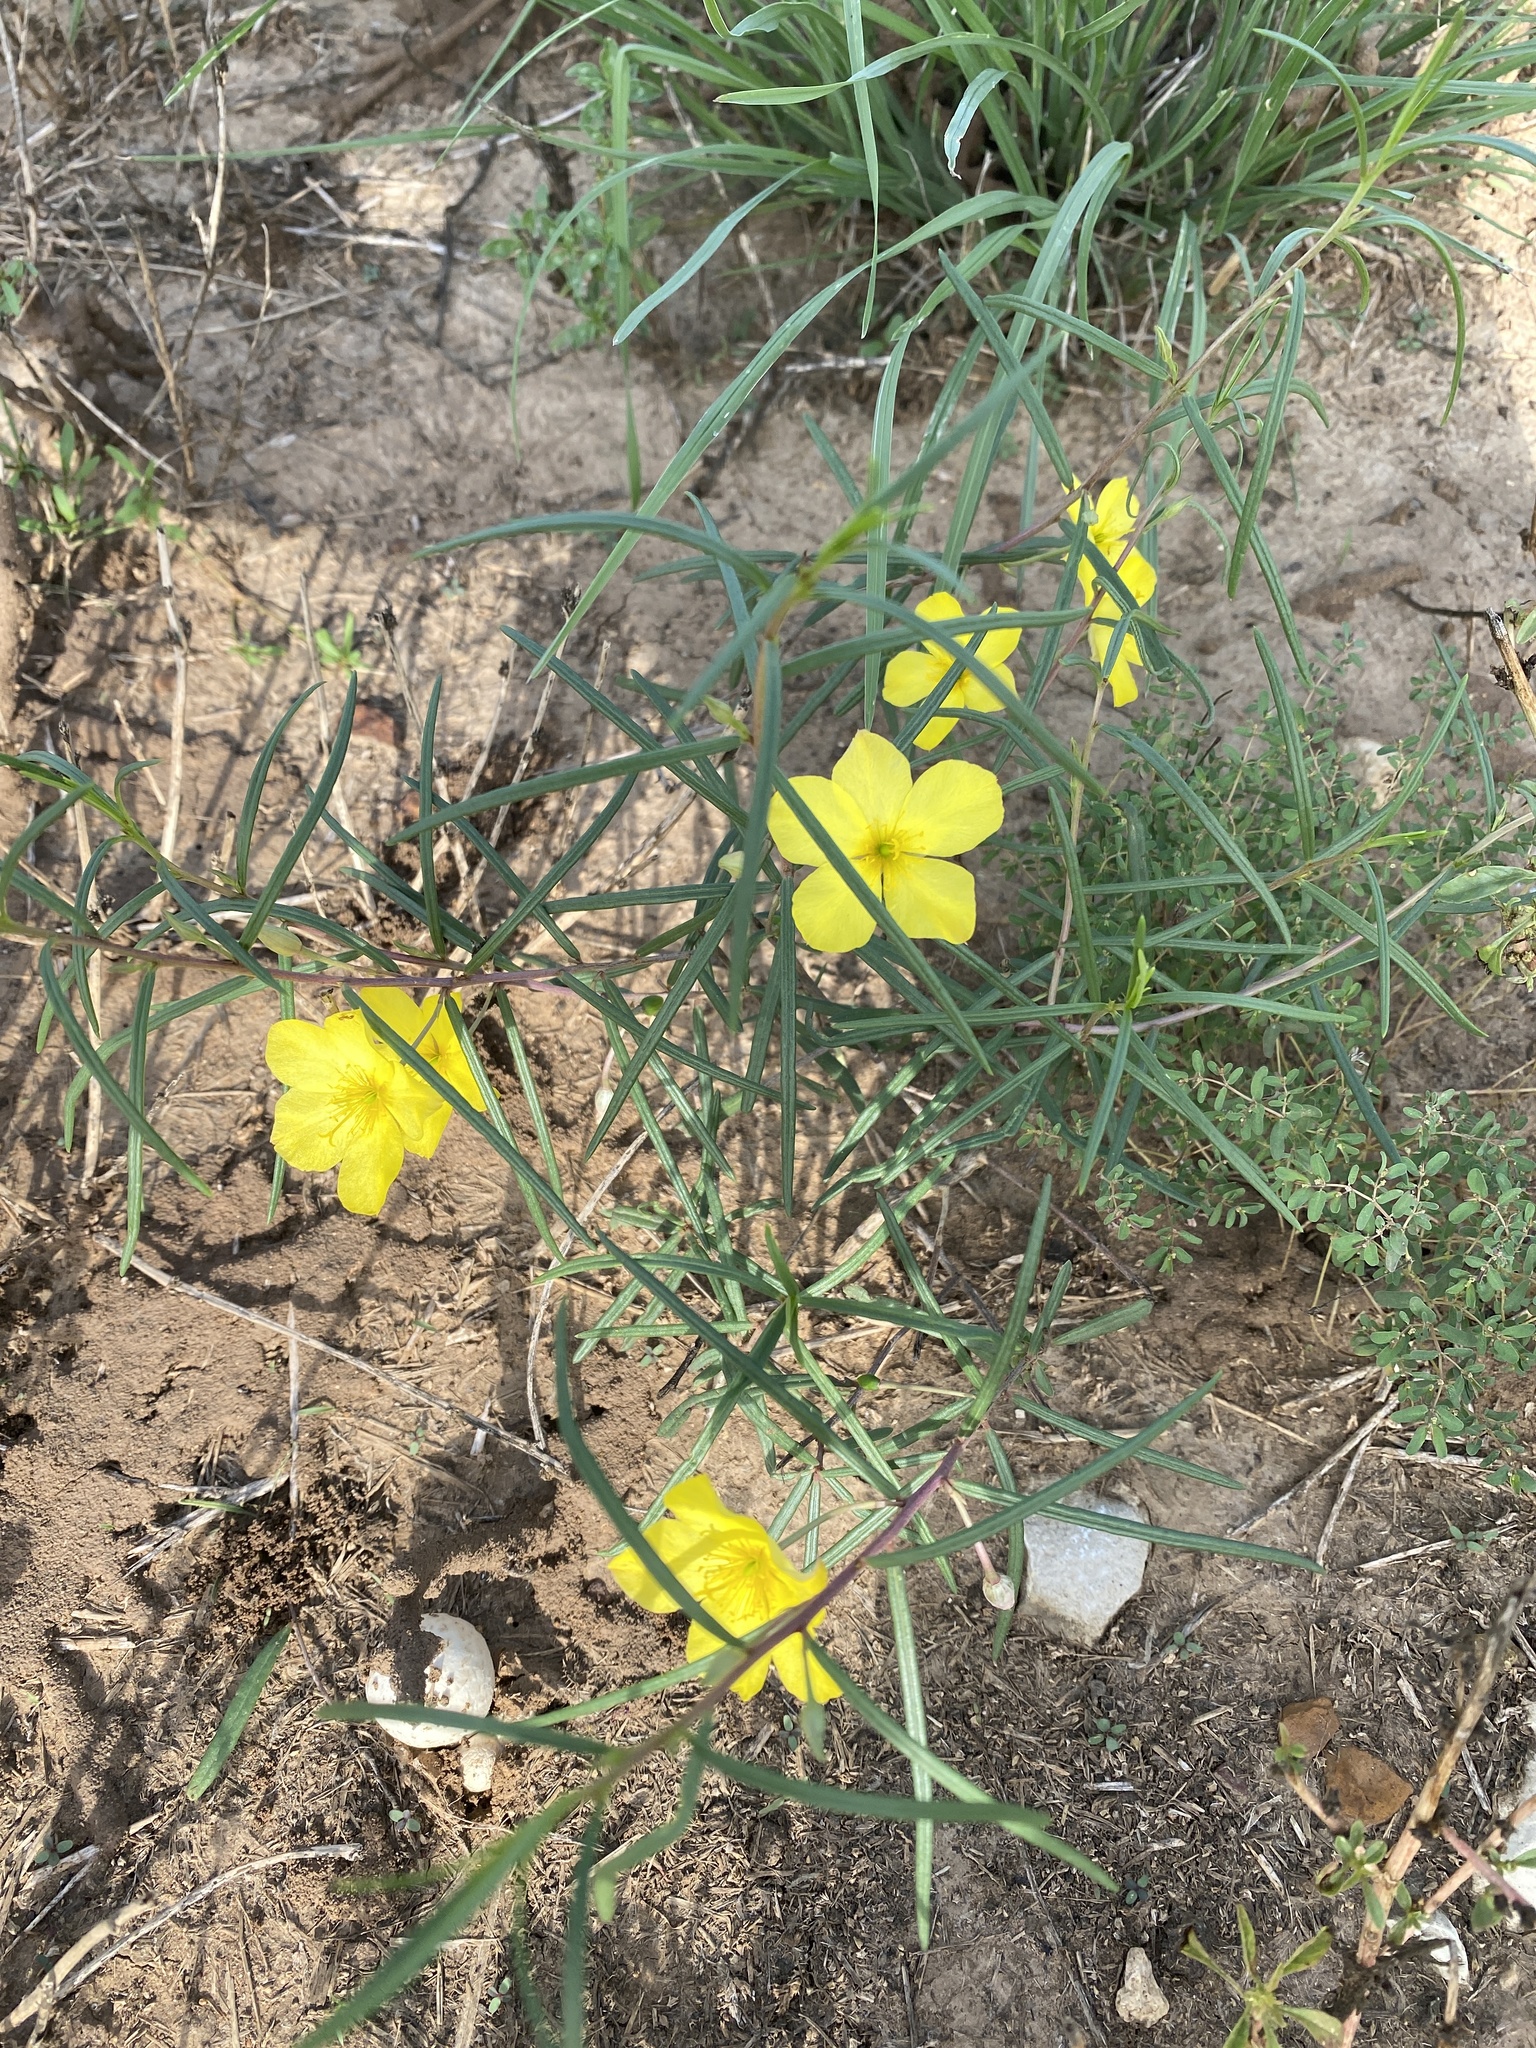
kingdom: Plantae
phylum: Tracheophyta
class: Magnoliopsida
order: Myrtales
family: Onagraceae
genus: Oenothera
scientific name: Oenothera
